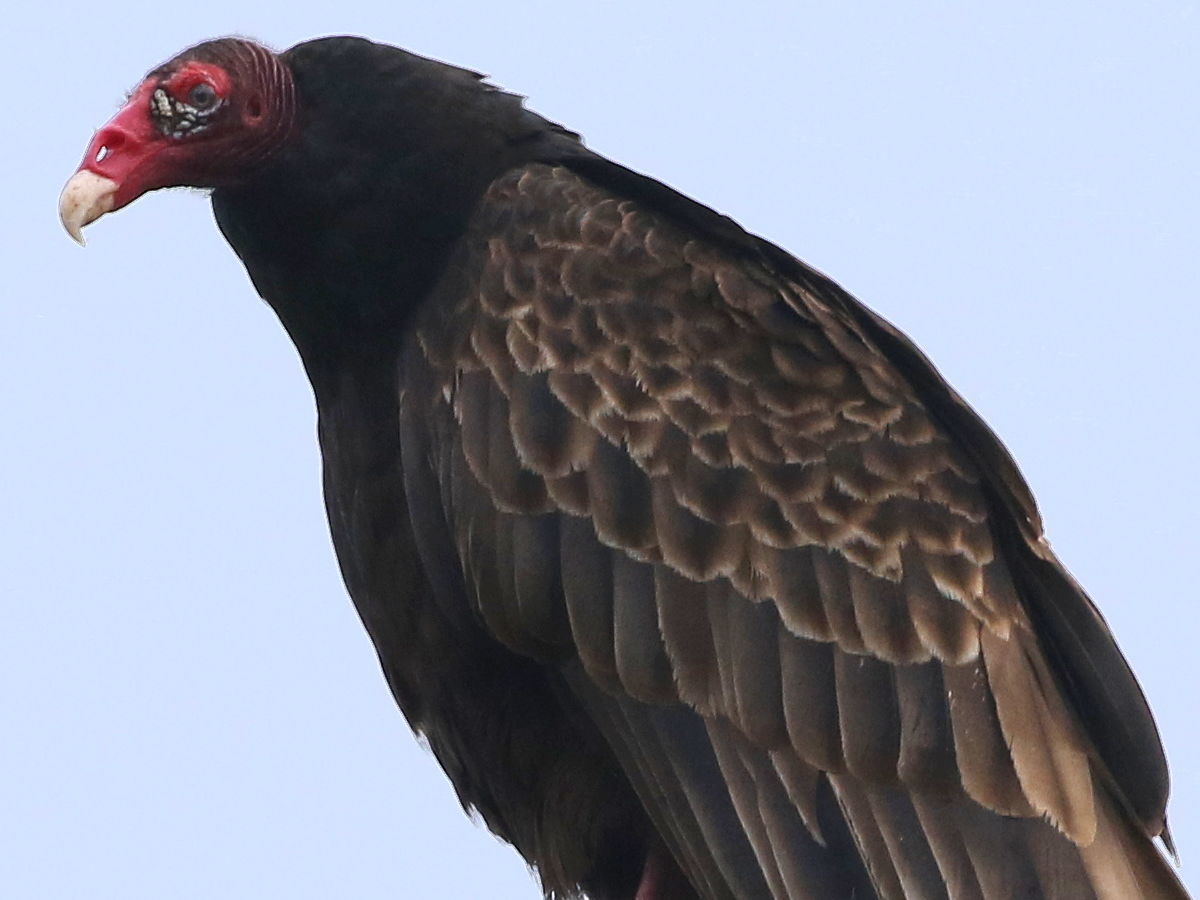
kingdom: Animalia
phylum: Chordata
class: Aves
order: Accipitriformes
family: Cathartidae
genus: Cathartes
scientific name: Cathartes aura
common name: Turkey vulture
